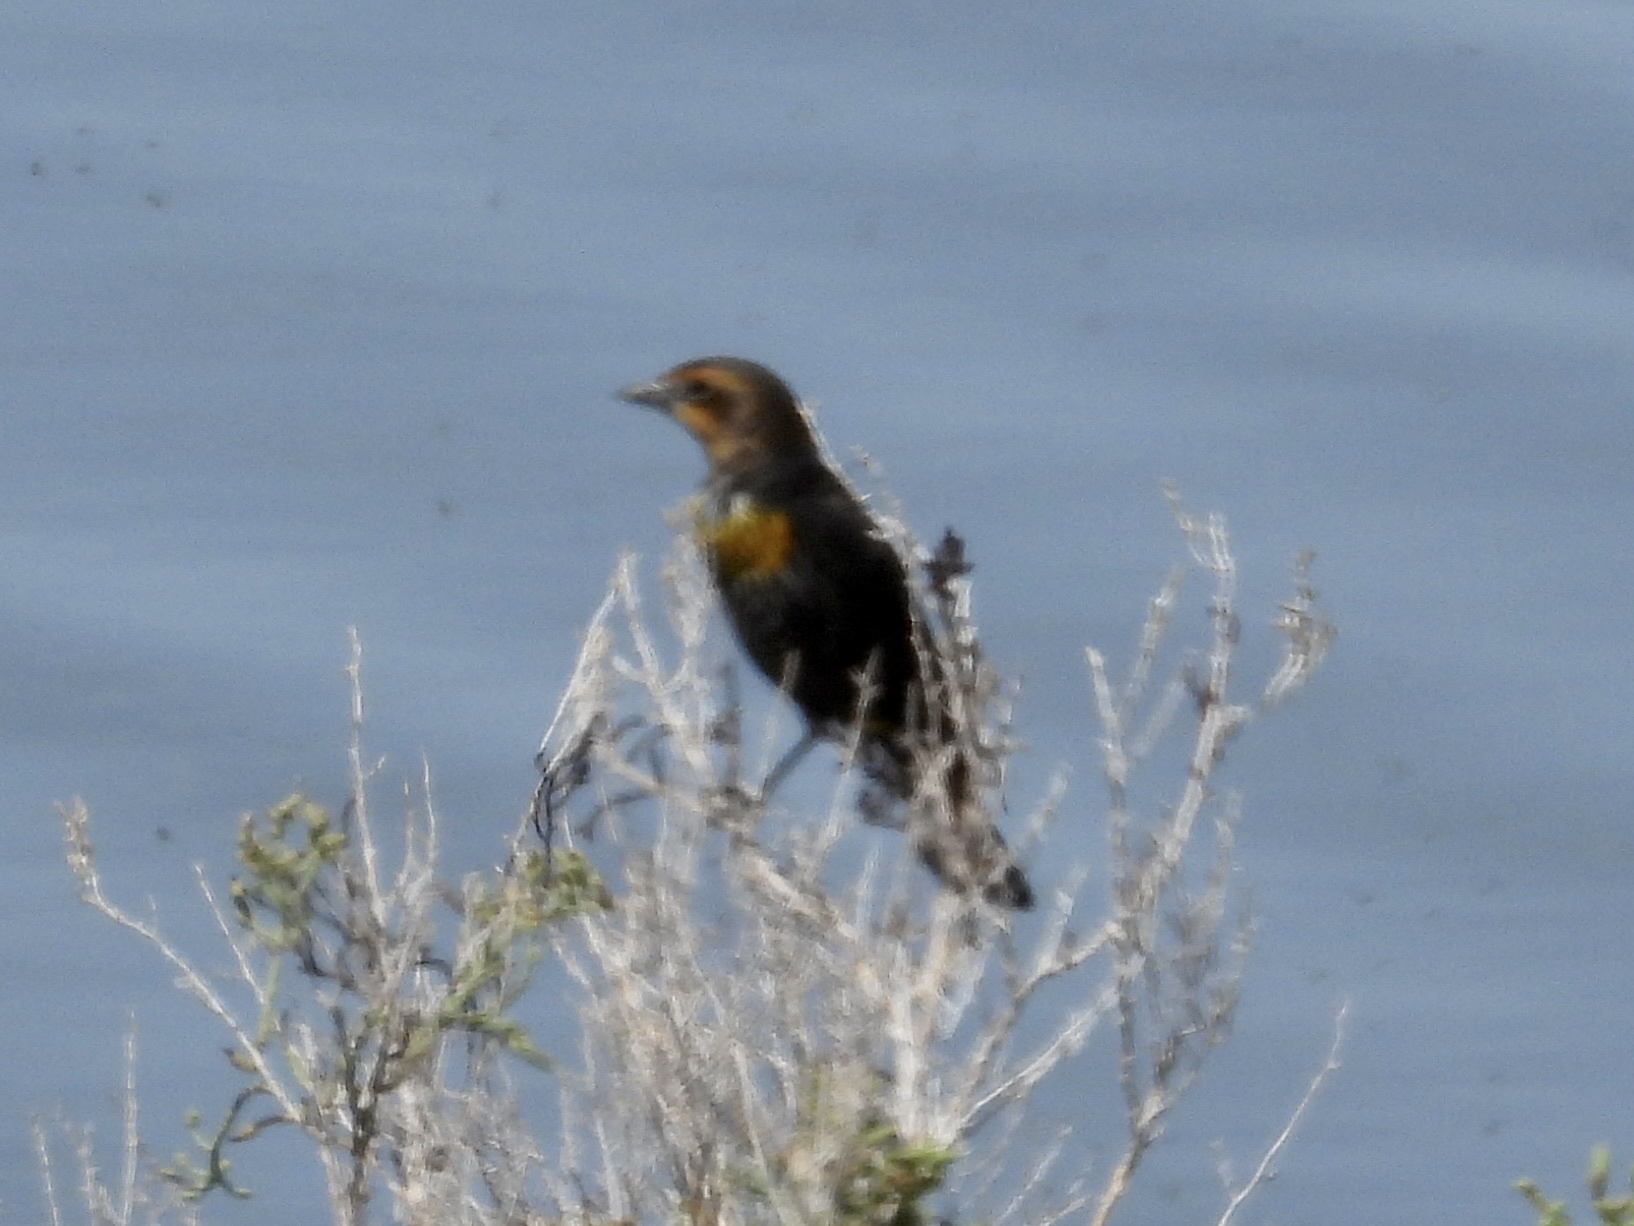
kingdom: Animalia
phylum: Chordata
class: Aves
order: Passeriformes
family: Icteridae
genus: Xanthocephalus
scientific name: Xanthocephalus xanthocephalus
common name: Yellow-headed blackbird
